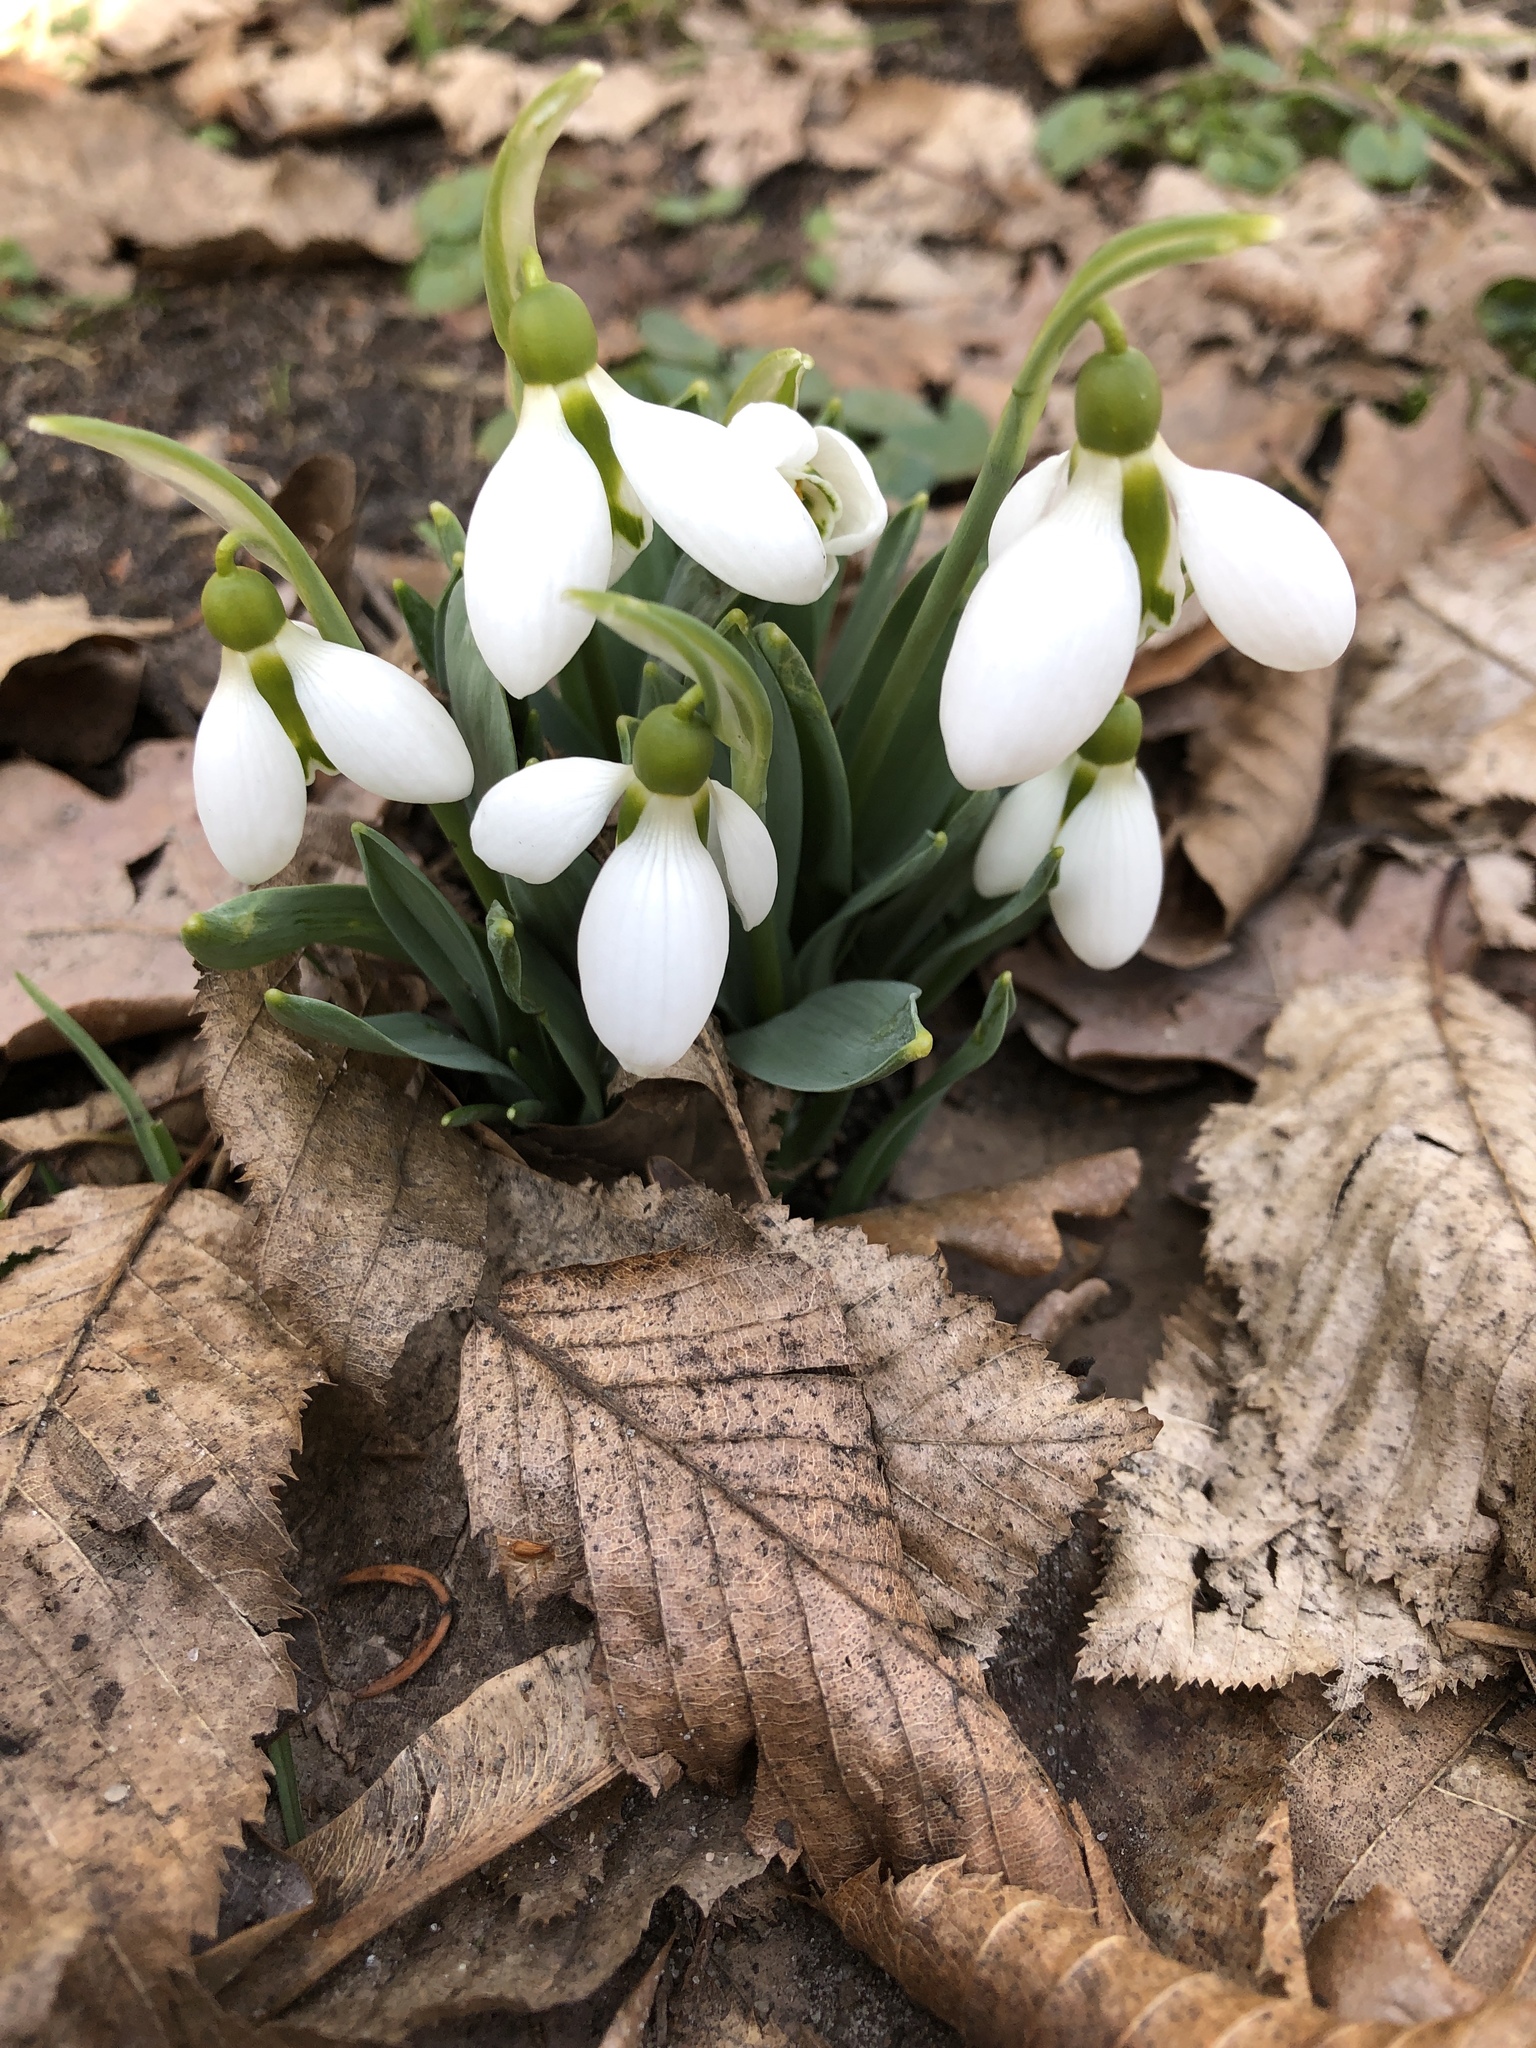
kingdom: Plantae
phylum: Tracheophyta
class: Liliopsida
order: Asparagales
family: Amaryllidaceae
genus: Galanthus
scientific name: Galanthus elwesii
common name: Greater snowdrop
